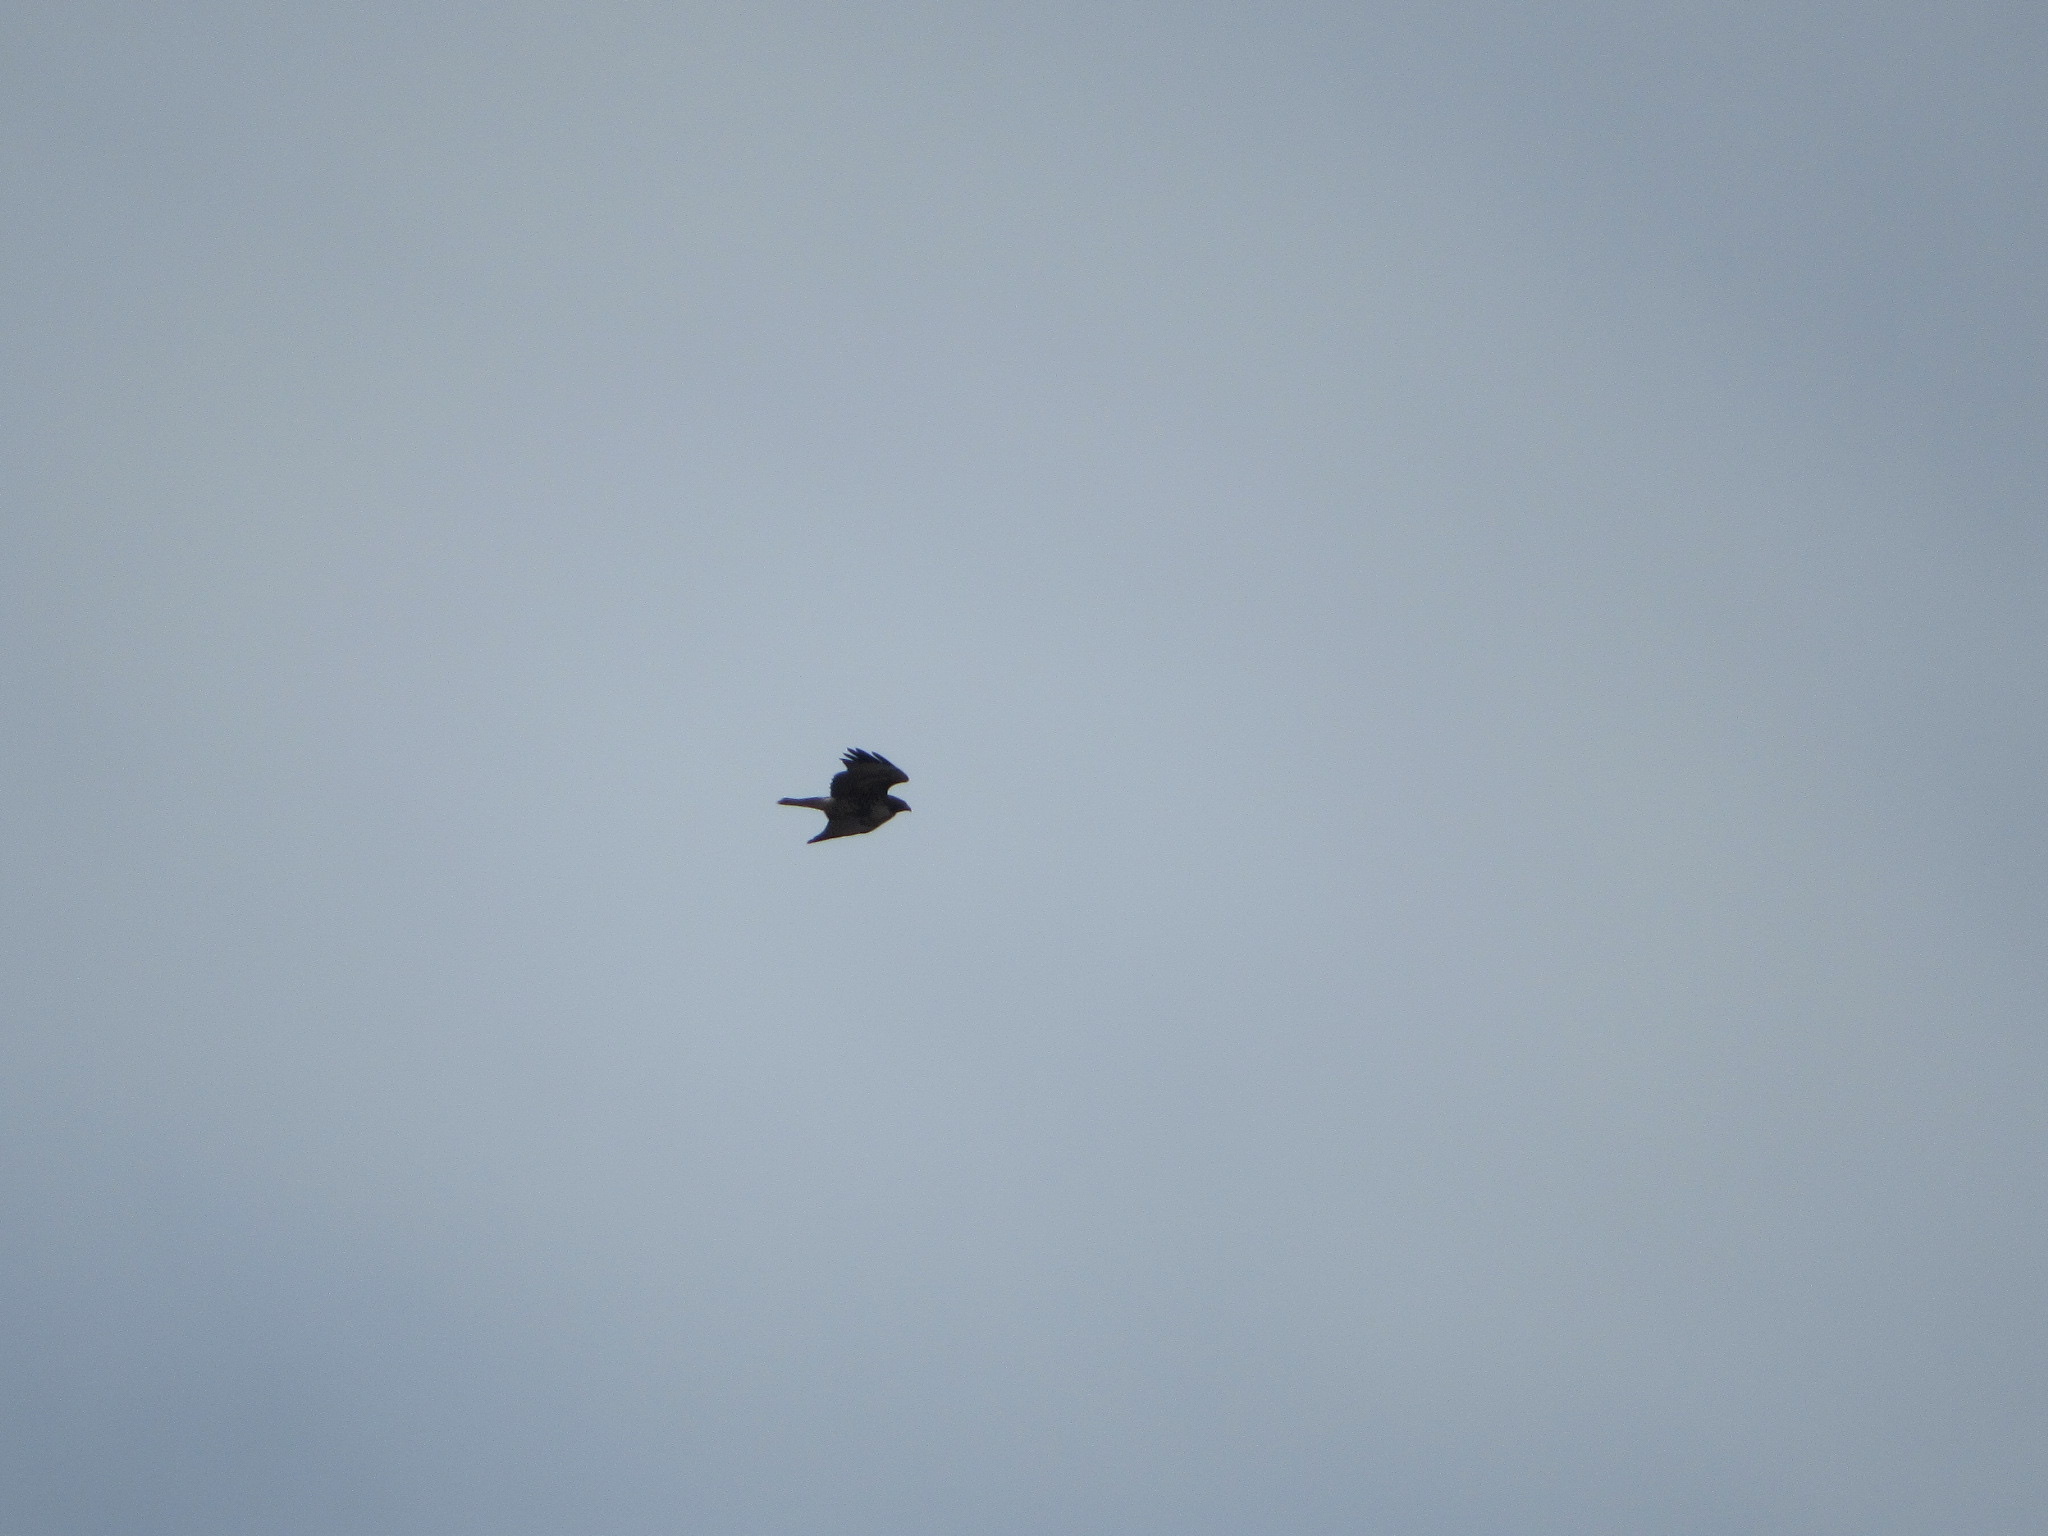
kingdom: Animalia
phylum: Chordata
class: Aves
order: Accipitriformes
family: Accipitridae
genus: Buteo
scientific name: Buteo jamaicensis
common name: Red-tailed hawk
